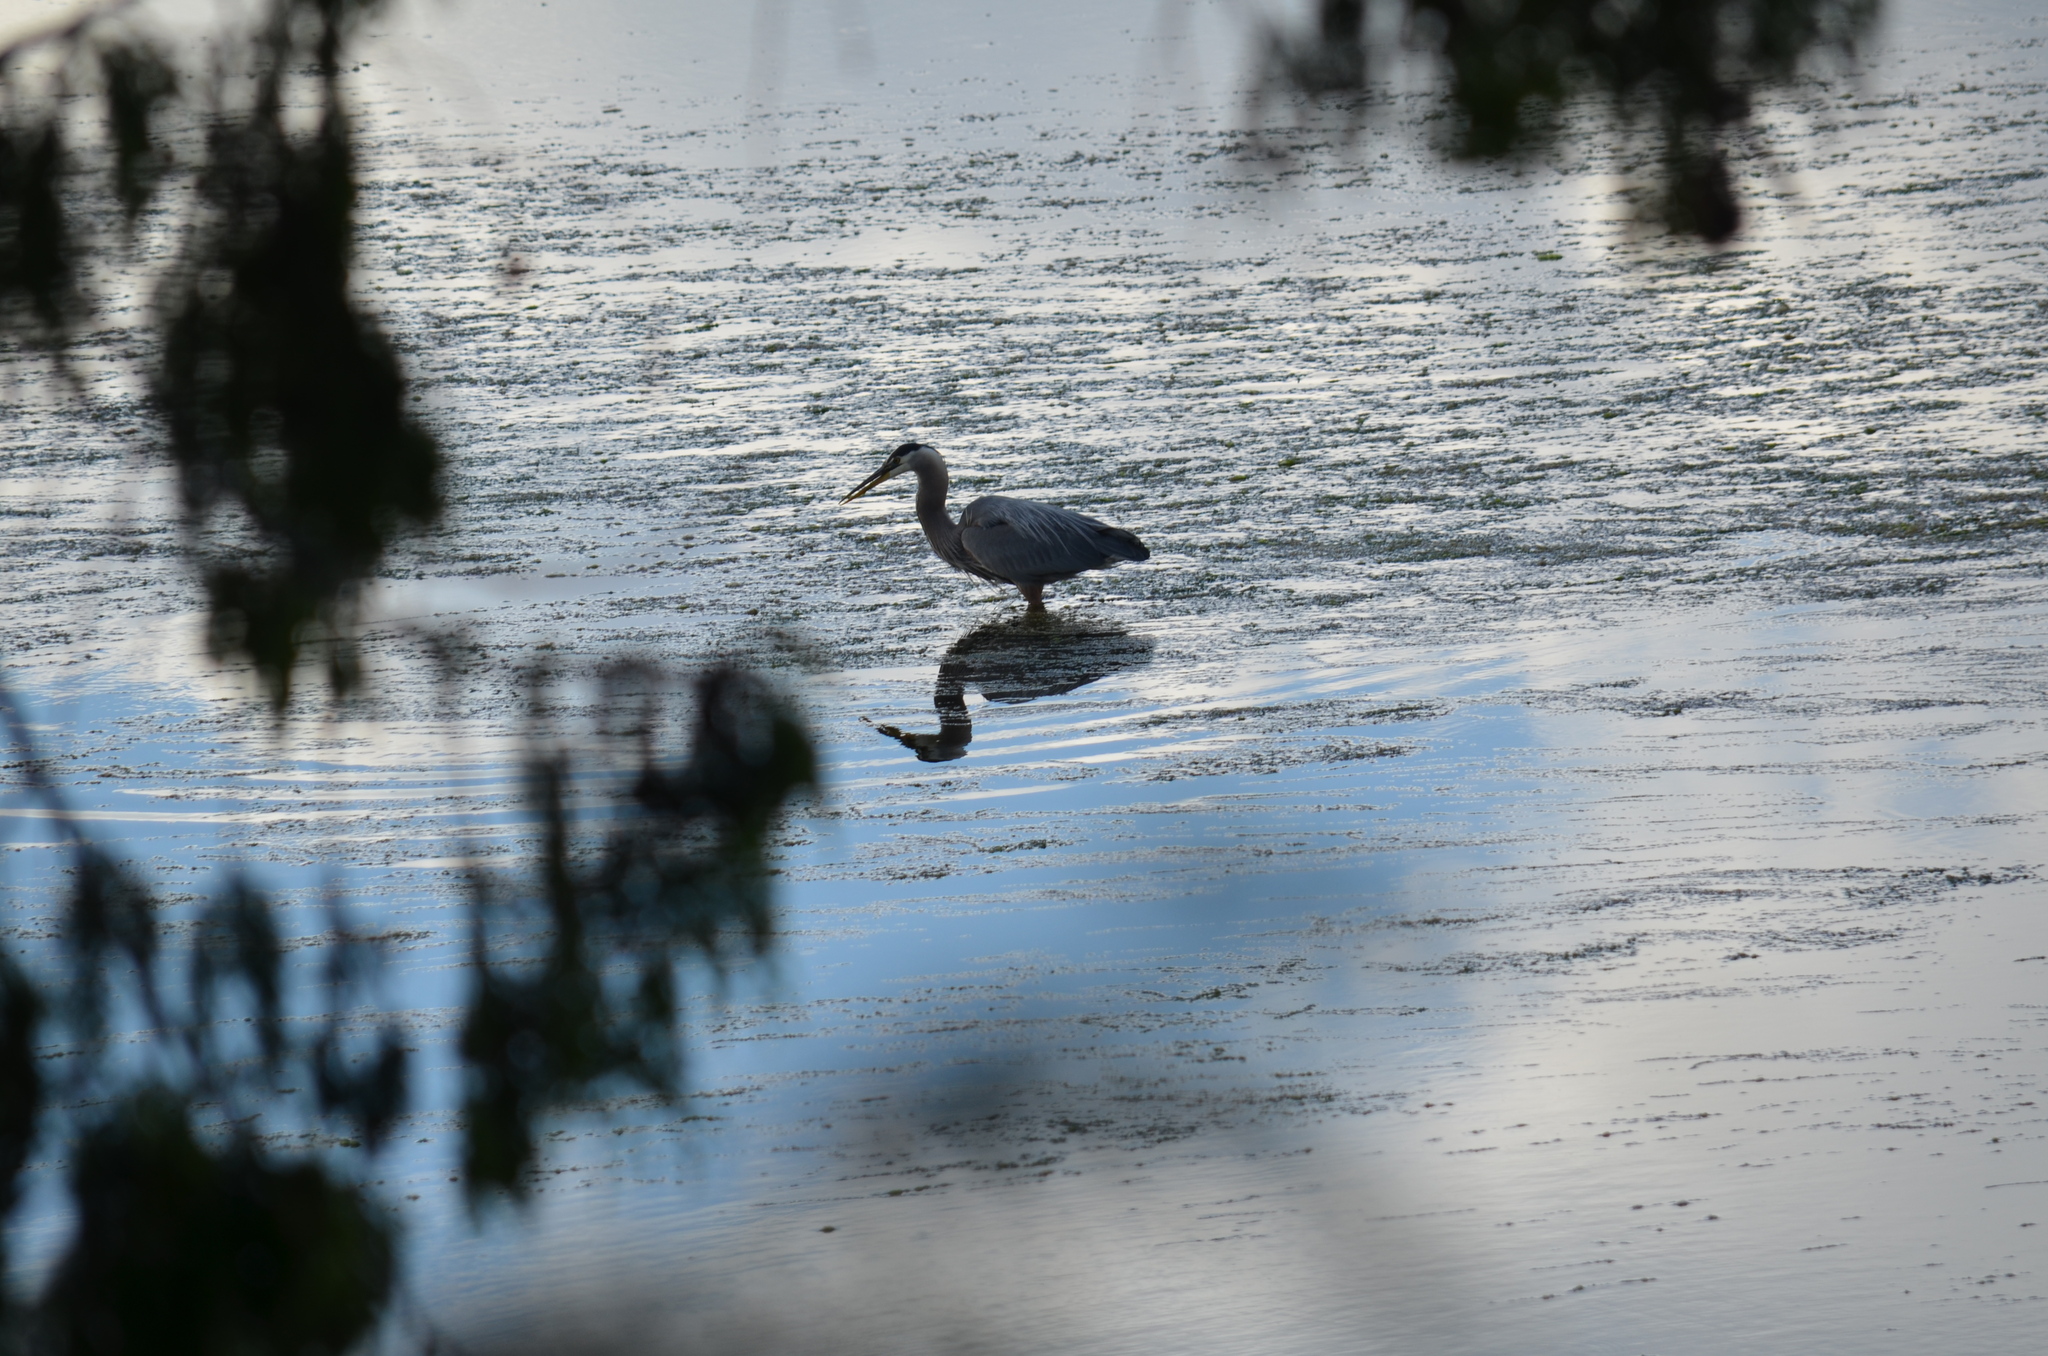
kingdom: Animalia
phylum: Chordata
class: Aves
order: Pelecaniformes
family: Ardeidae
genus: Ardea
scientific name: Ardea herodias
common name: Great blue heron
